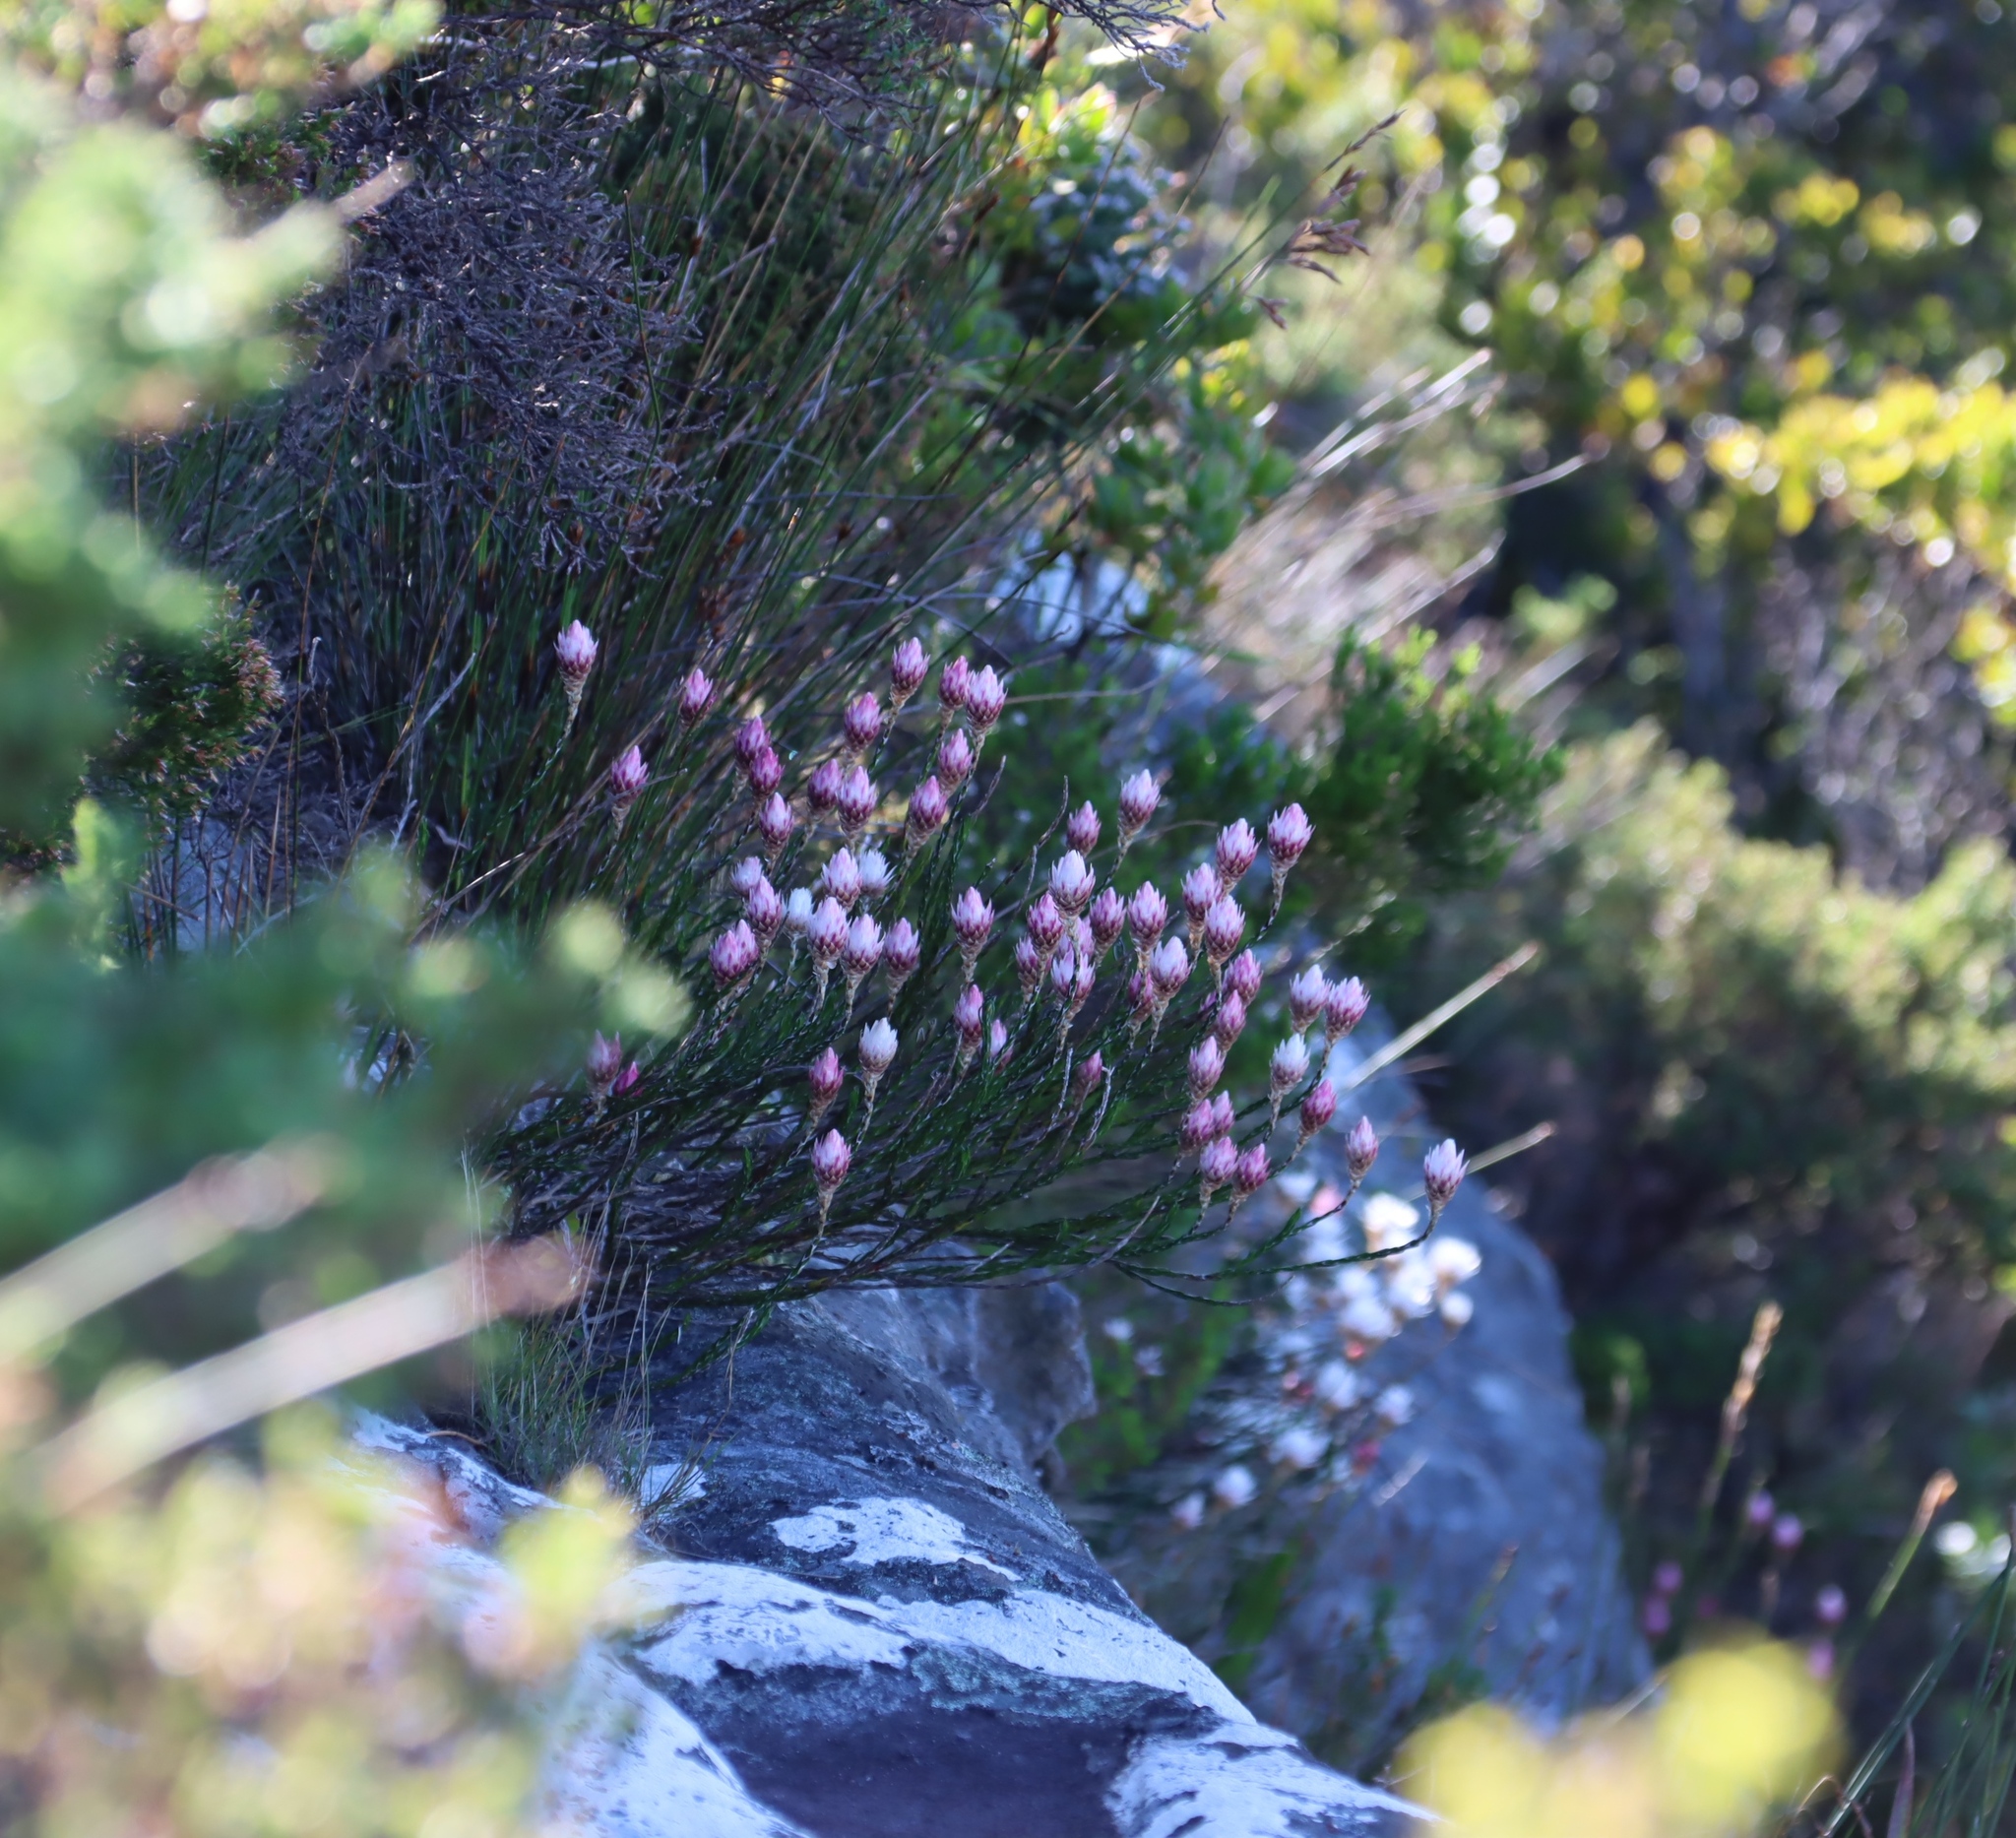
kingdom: Plantae
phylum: Tracheophyta
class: Magnoliopsida
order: Asterales
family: Asteraceae
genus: Edmondia
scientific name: Edmondia pinifolia
